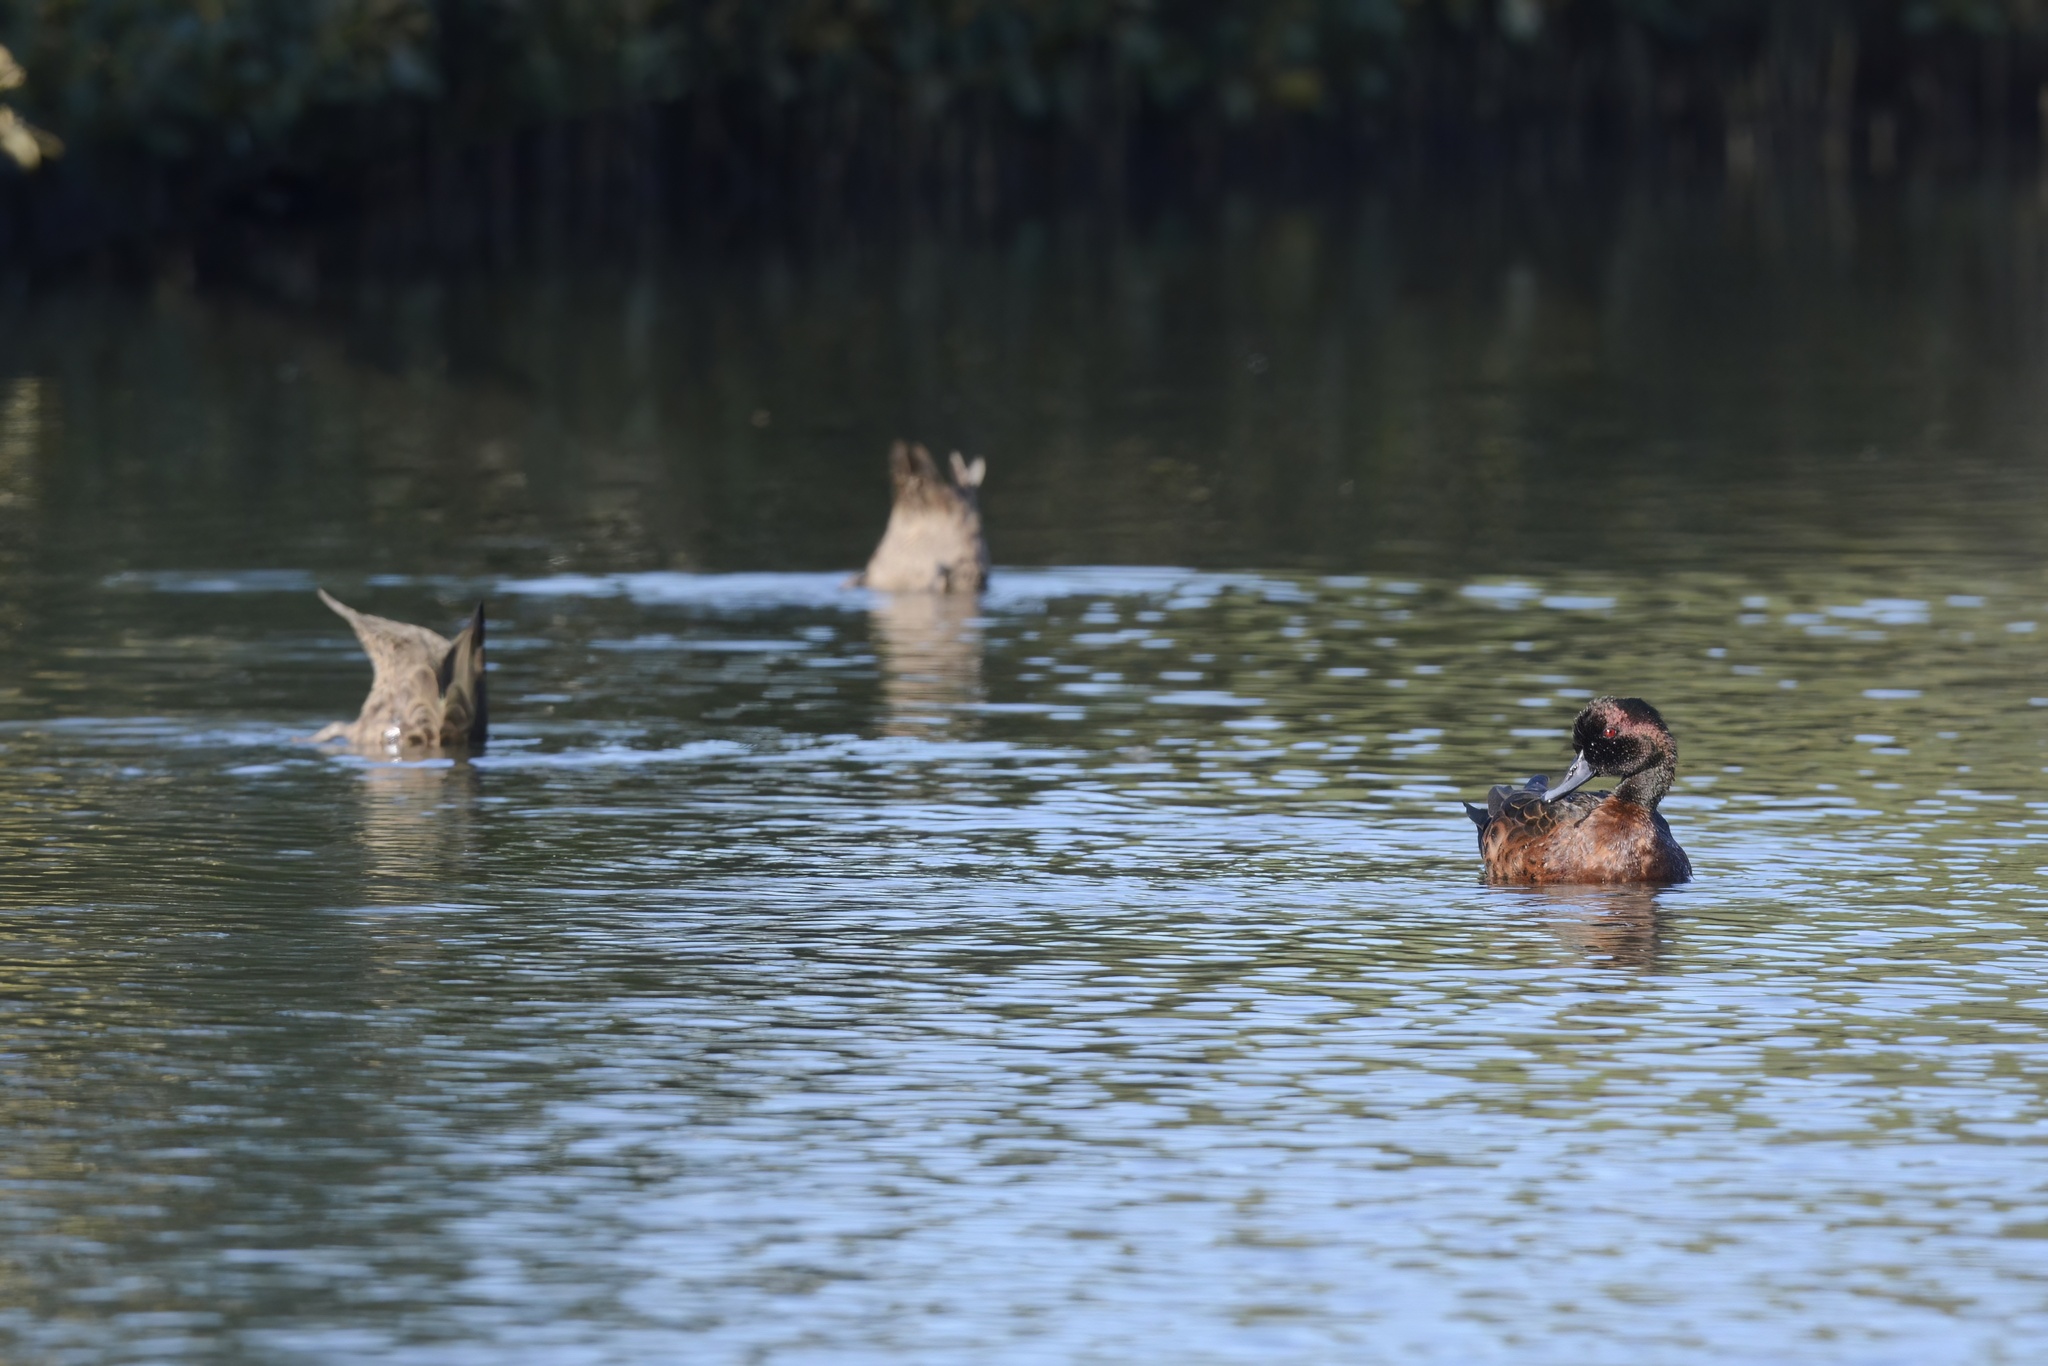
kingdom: Animalia
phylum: Chordata
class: Aves
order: Anseriformes
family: Anatidae
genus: Anas
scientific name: Anas castanea
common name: Chestnut teal
